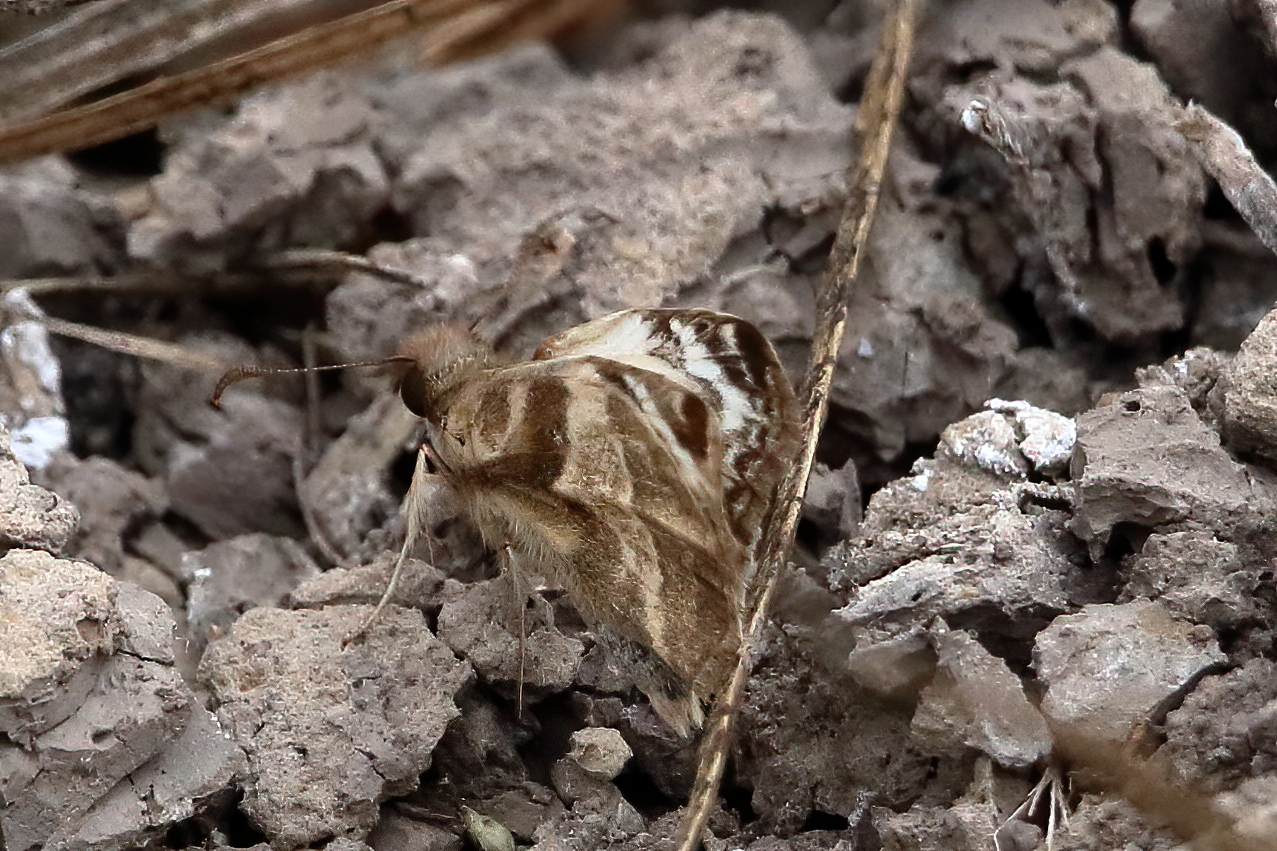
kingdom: Animalia
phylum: Arthropoda
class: Insecta
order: Lepidoptera
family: Hesperiidae
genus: Heliopetes
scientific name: Heliopetes laviana
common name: Laviana white-skipper
